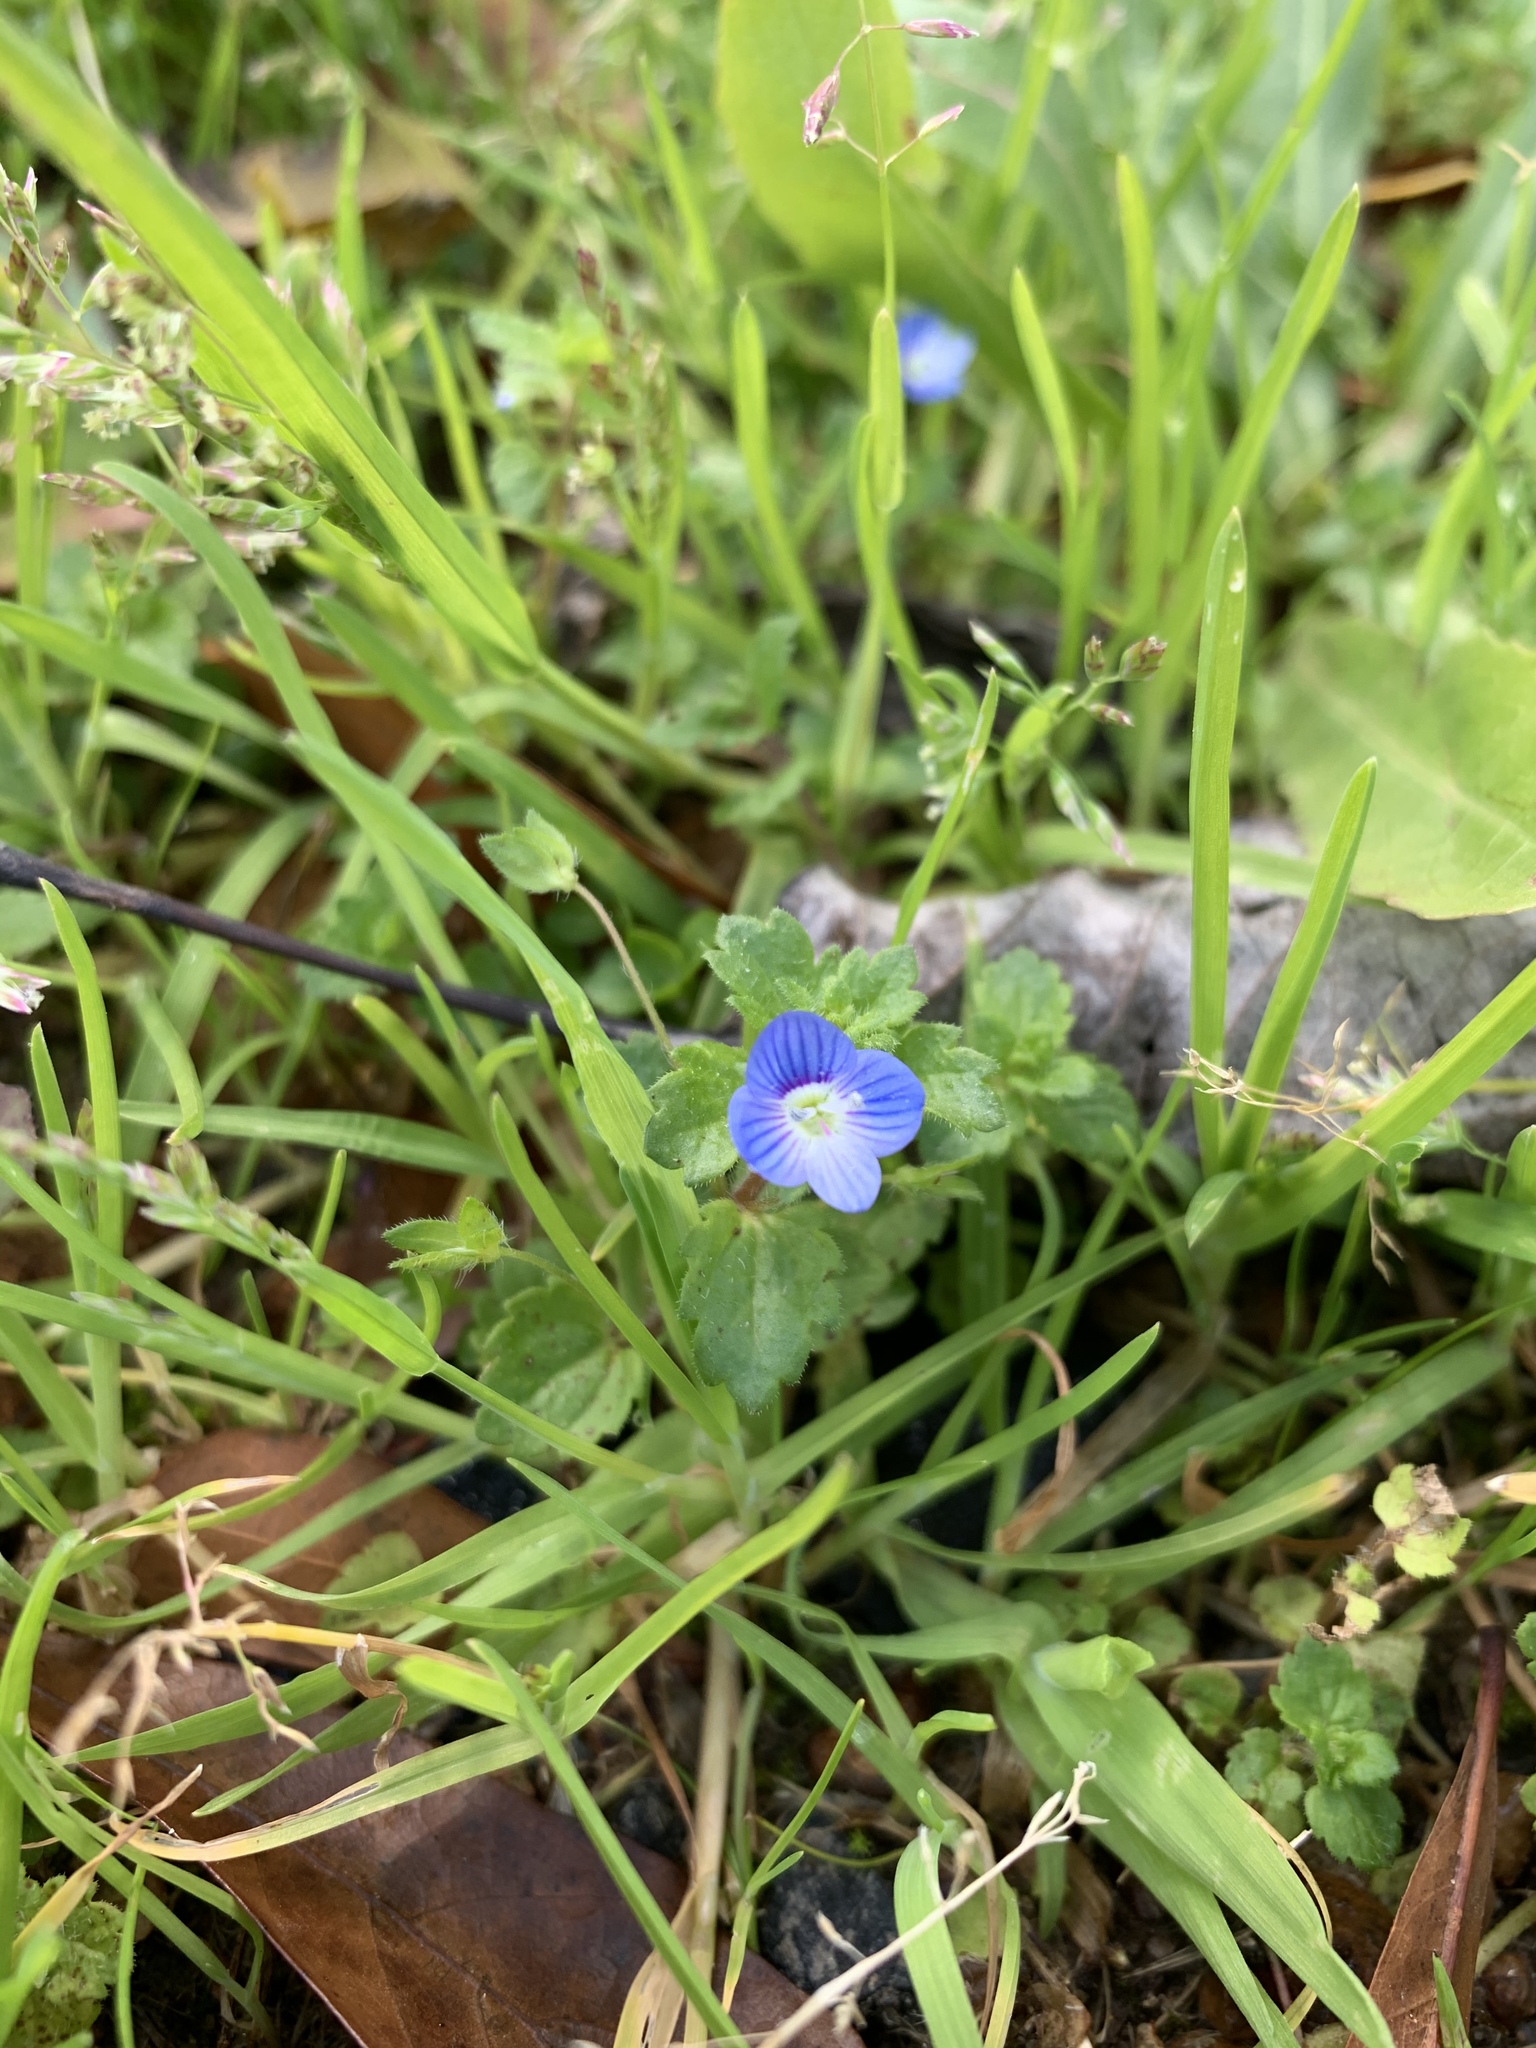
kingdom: Plantae
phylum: Tracheophyta
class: Magnoliopsida
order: Lamiales
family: Plantaginaceae
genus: Veronica
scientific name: Veronica persica
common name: Common field-speedwell
